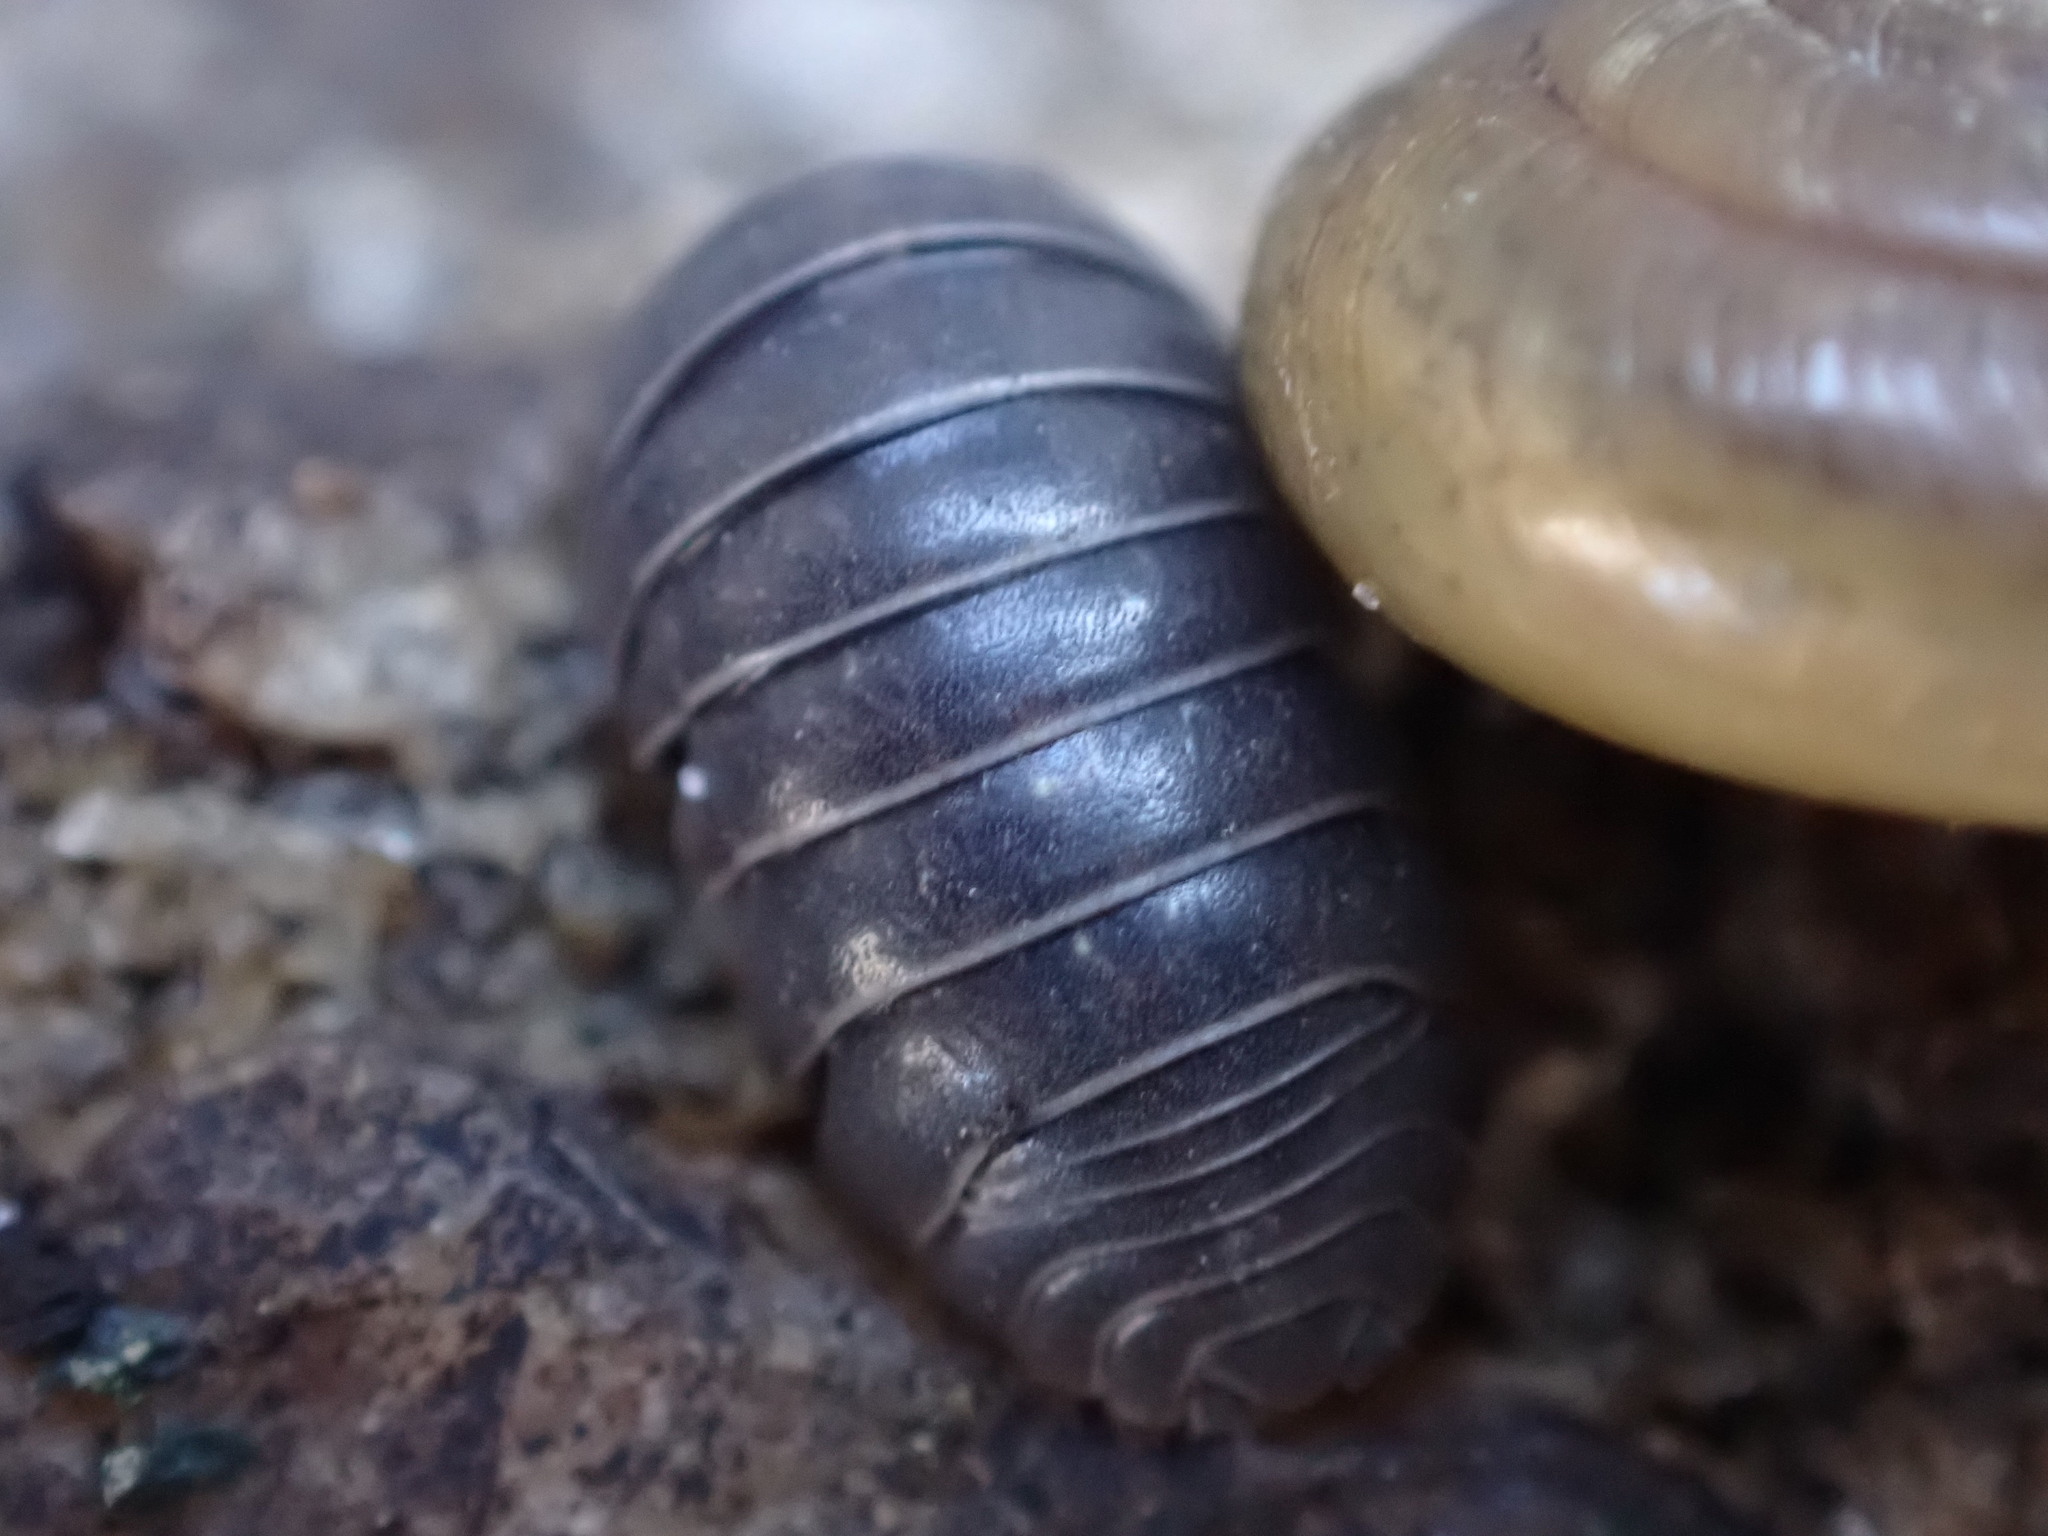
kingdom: Animalia
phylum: Arthropoda
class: Malacostraca
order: Isopoda
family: Armadillidiidae
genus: Armadillidium
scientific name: Armadillidium vulgare
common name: Common pill woodlouse
